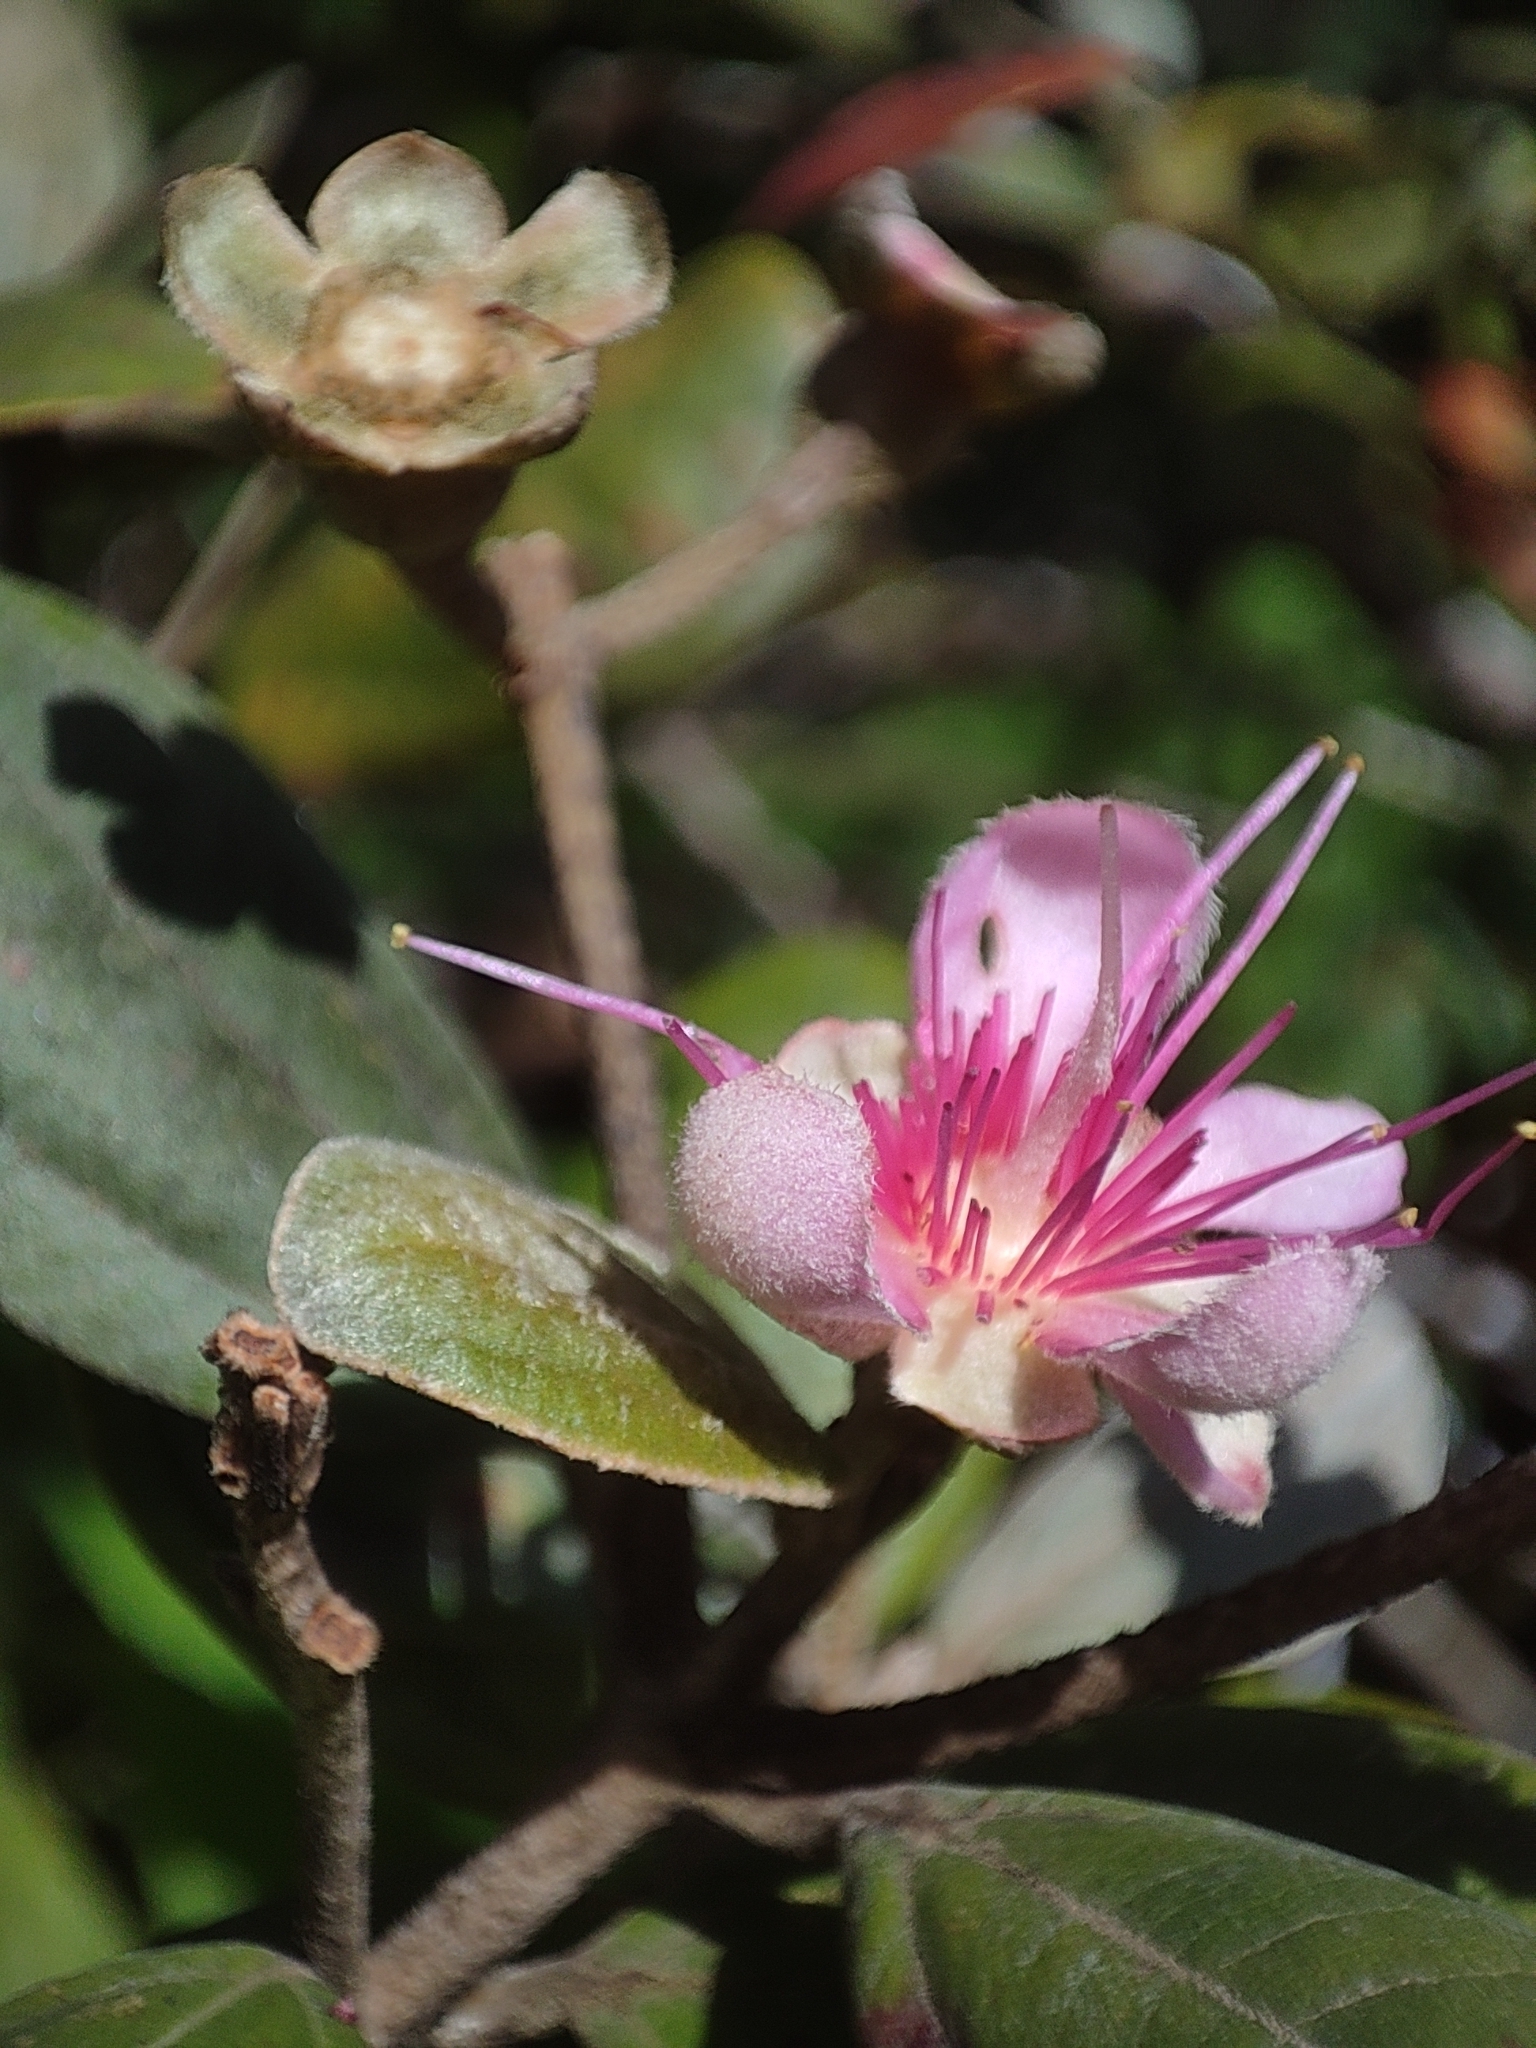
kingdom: Plantae
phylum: Tracheophyta
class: Magnoliopsida
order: Myrtales
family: Myrtaceae
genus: Rhodomyrtus
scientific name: Rhodomyrtus tomentosa
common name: Rose myrtle
